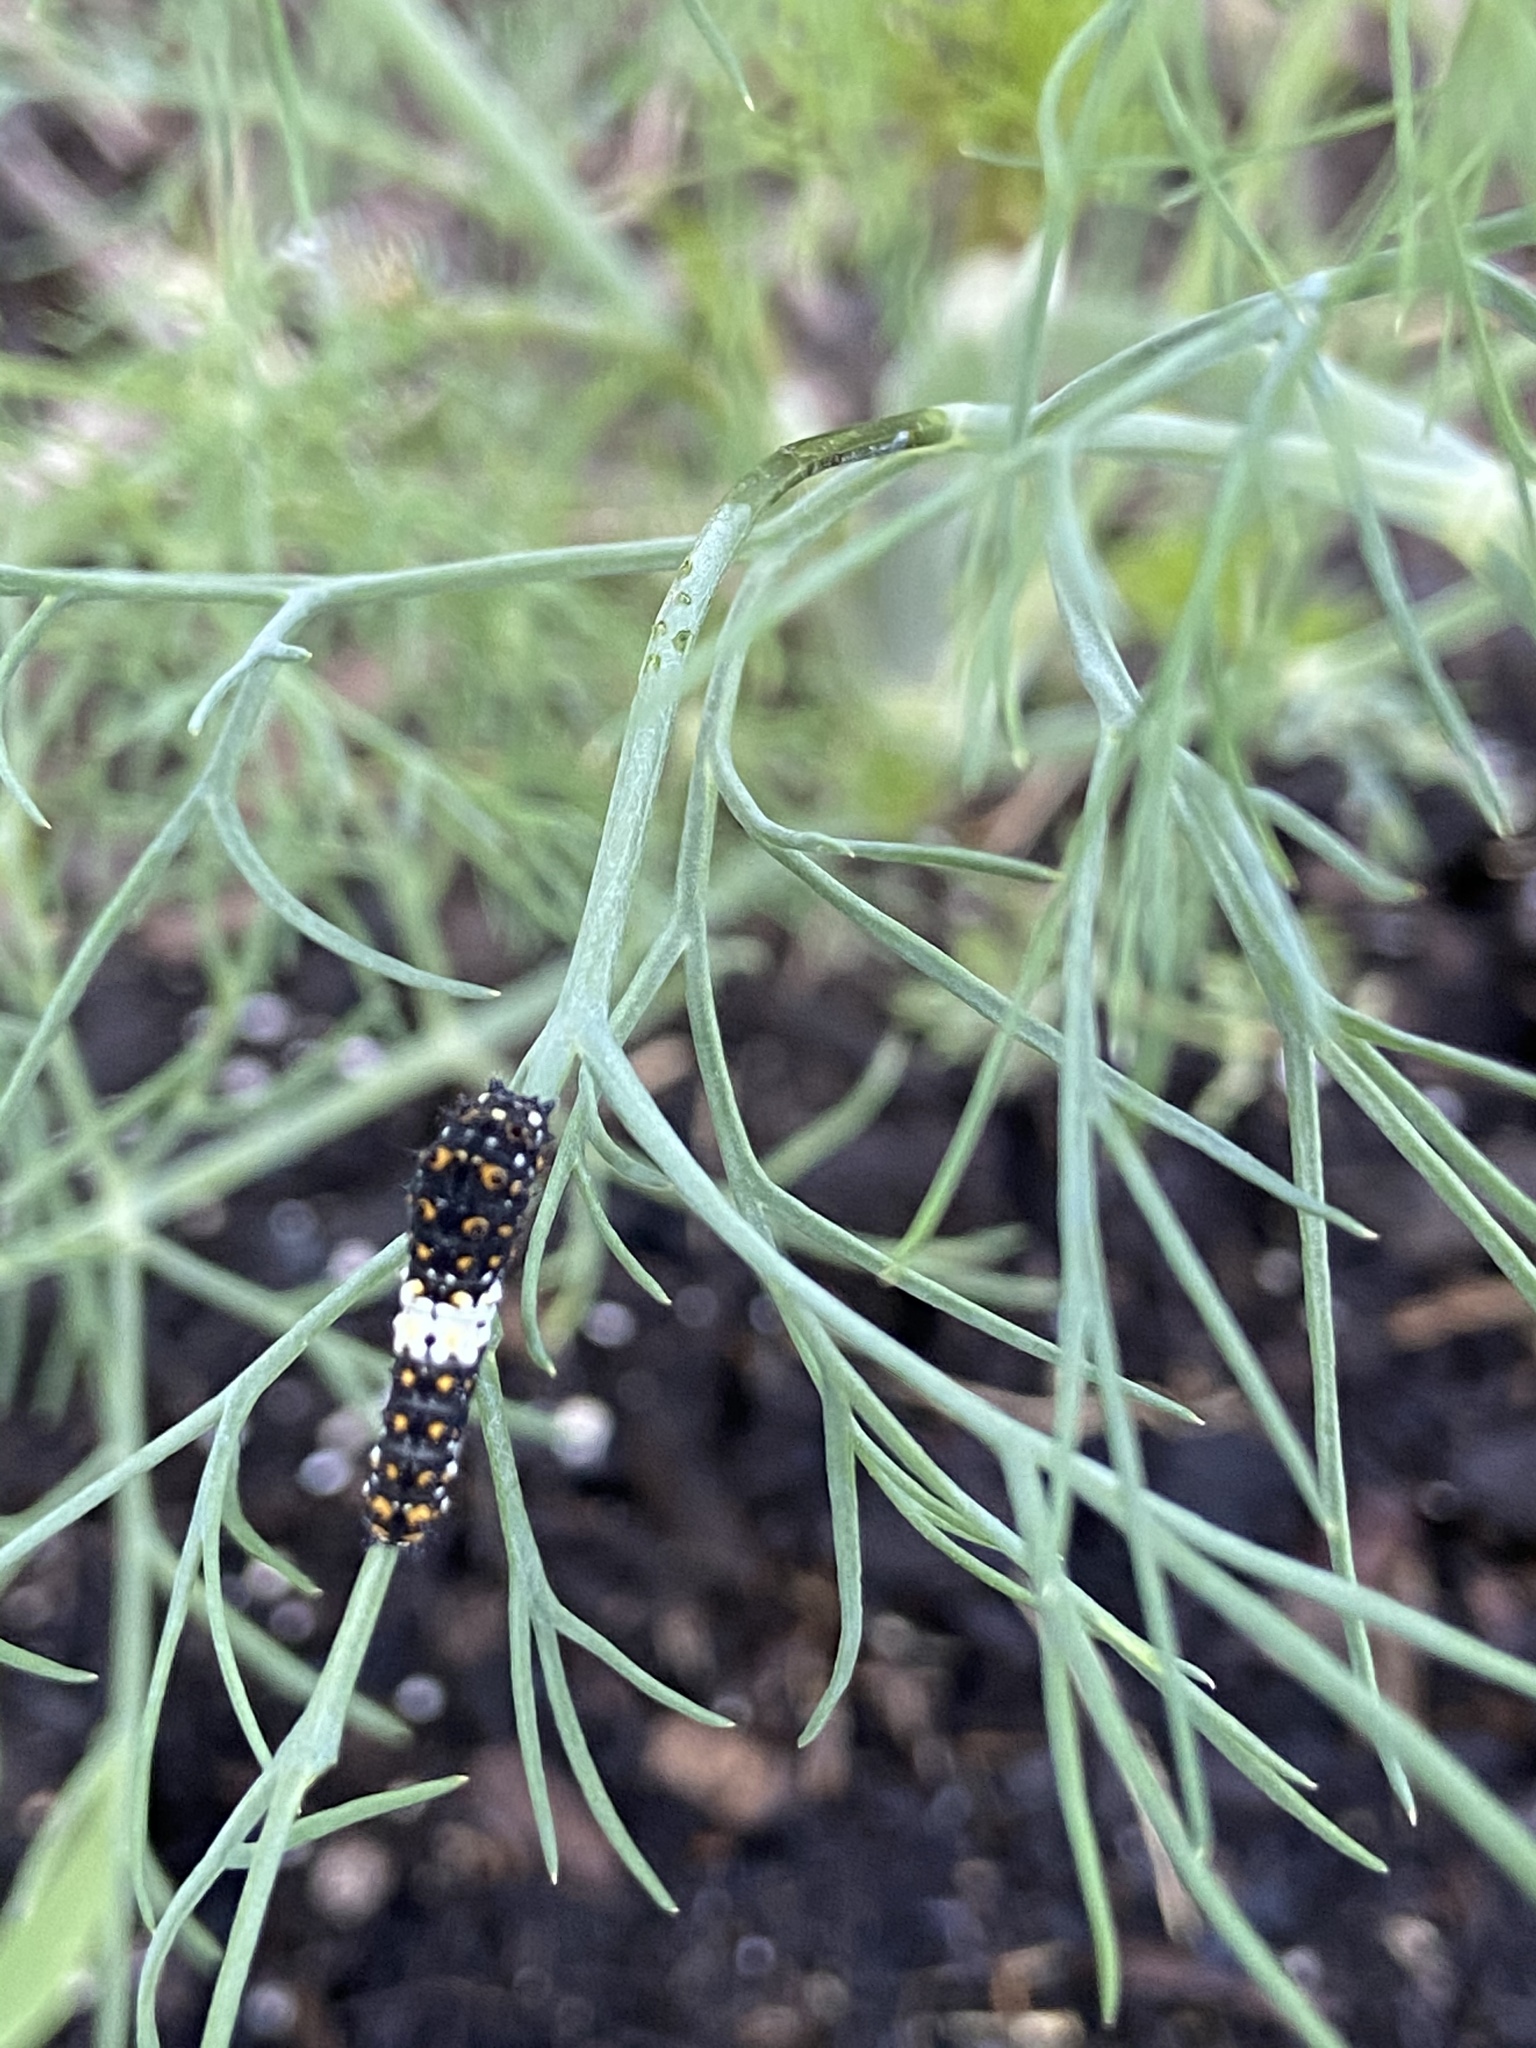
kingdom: Animalia
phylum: Arthropoda
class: Insecta
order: Lepidoptera
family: Papilionidae
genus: Papilio
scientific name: Papilio polyxenes
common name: Black swallowtail
